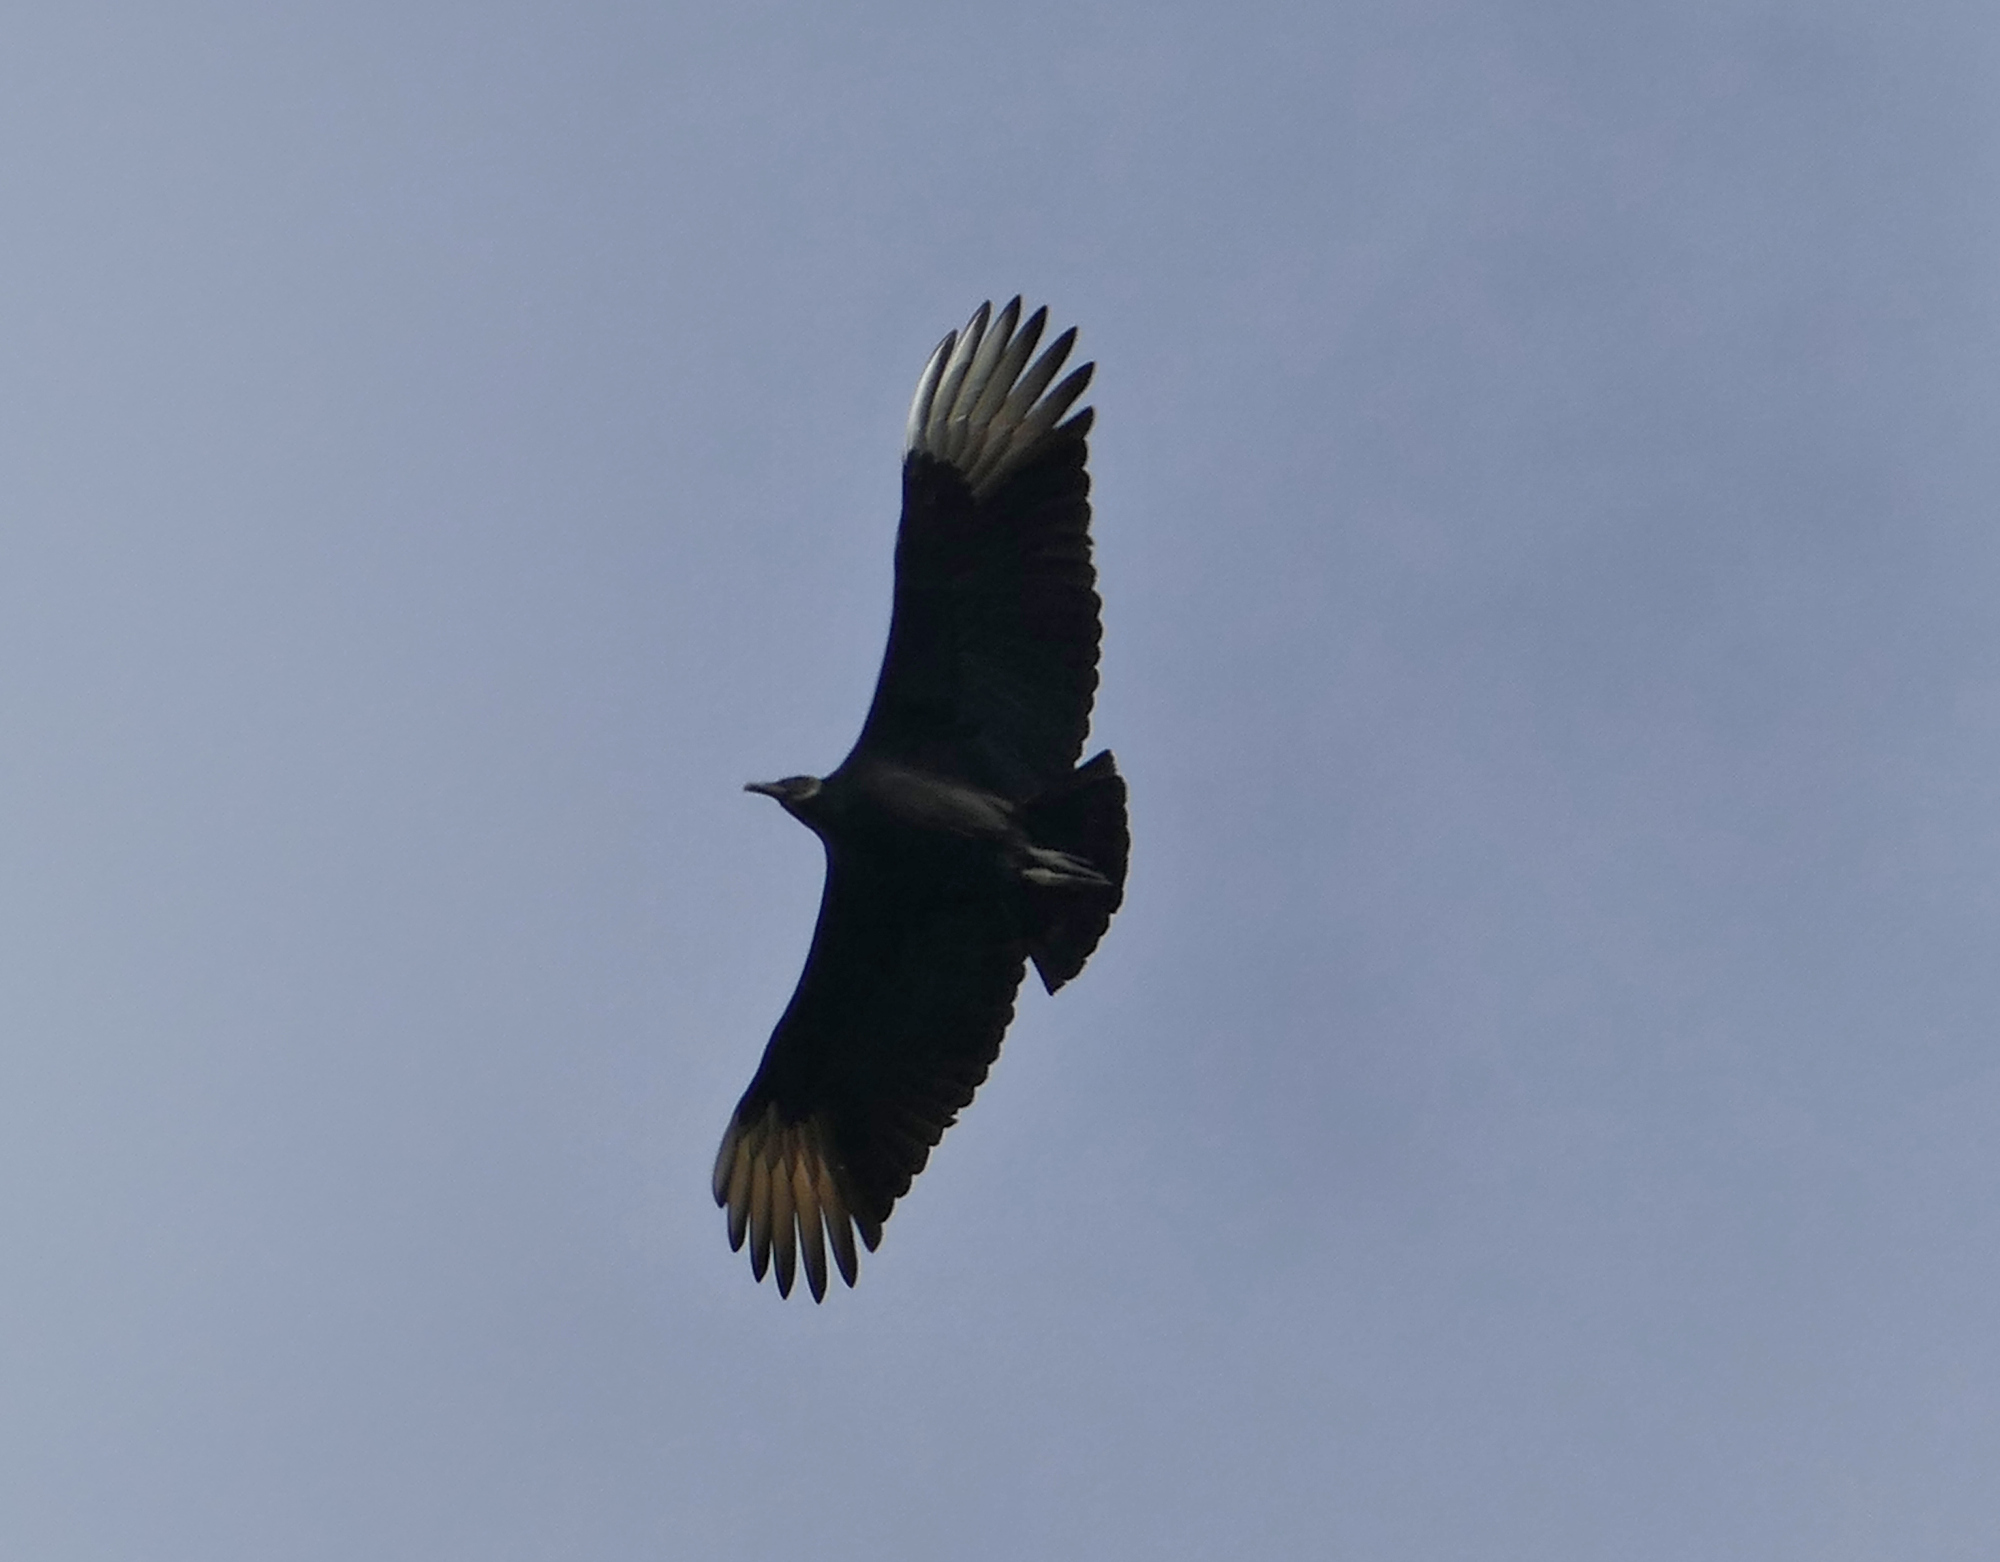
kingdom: Animalia
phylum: Chordata
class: Aves
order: Accipitriformes
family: Cathartidae
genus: Coragyps
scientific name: Coragyps atratus
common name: Black vulture
